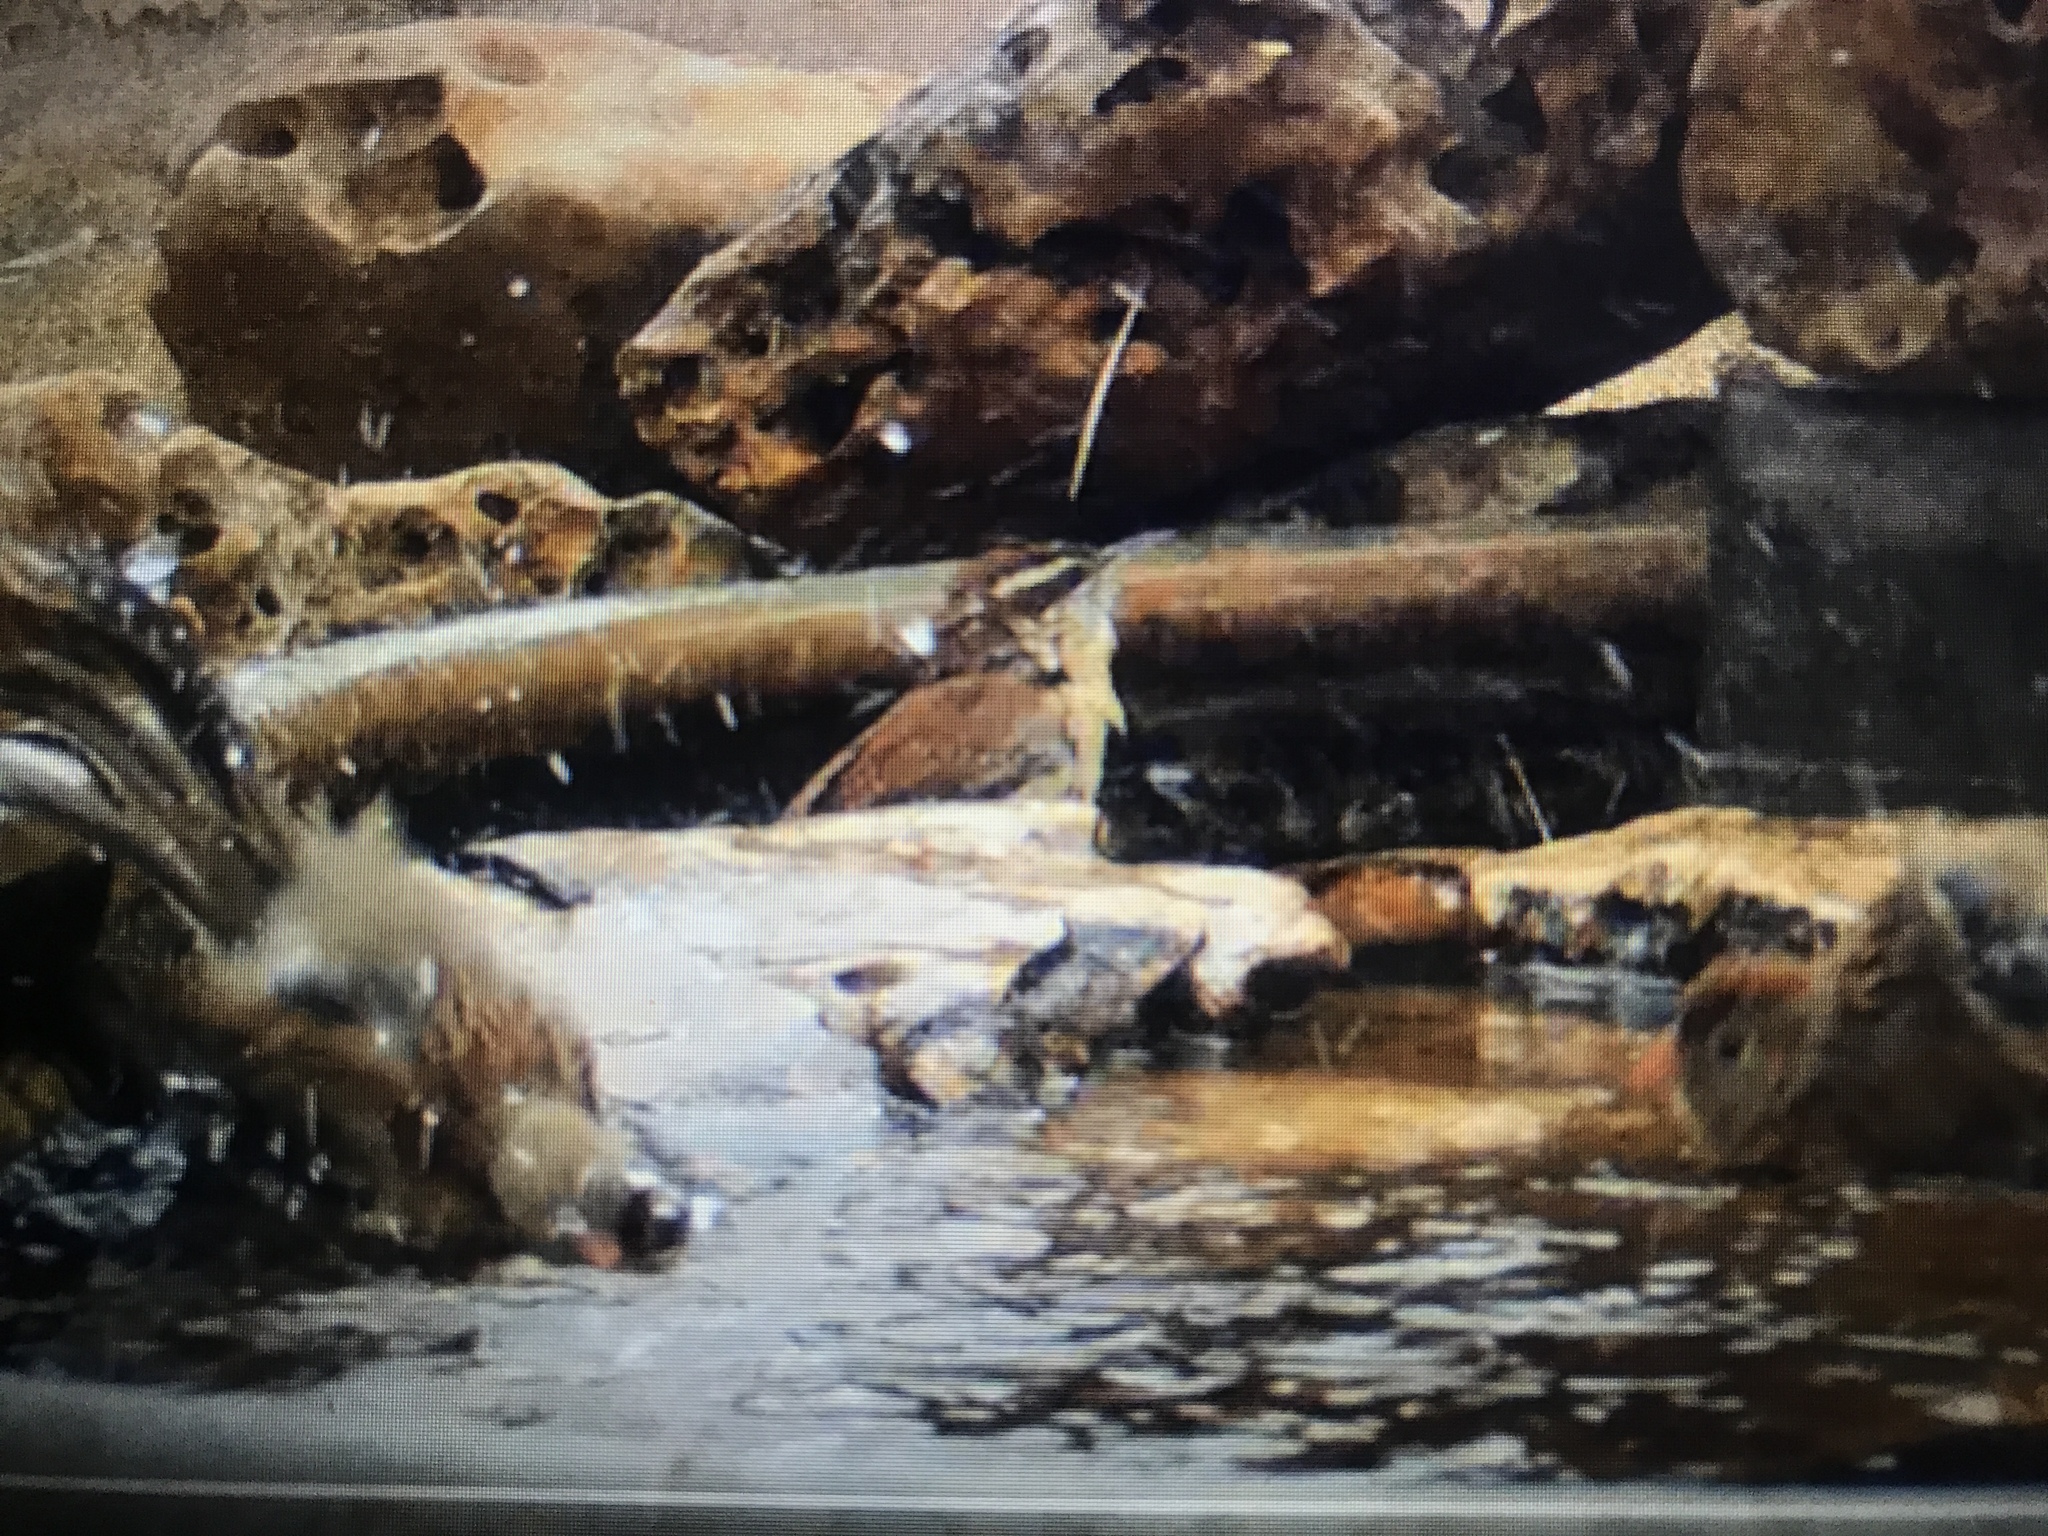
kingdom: Animalia
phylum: Chordata
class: Aves
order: Passeriformes
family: Troglodytidae
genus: Thryothorus
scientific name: Thryothorus ludovicianus
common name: Carolina wren
